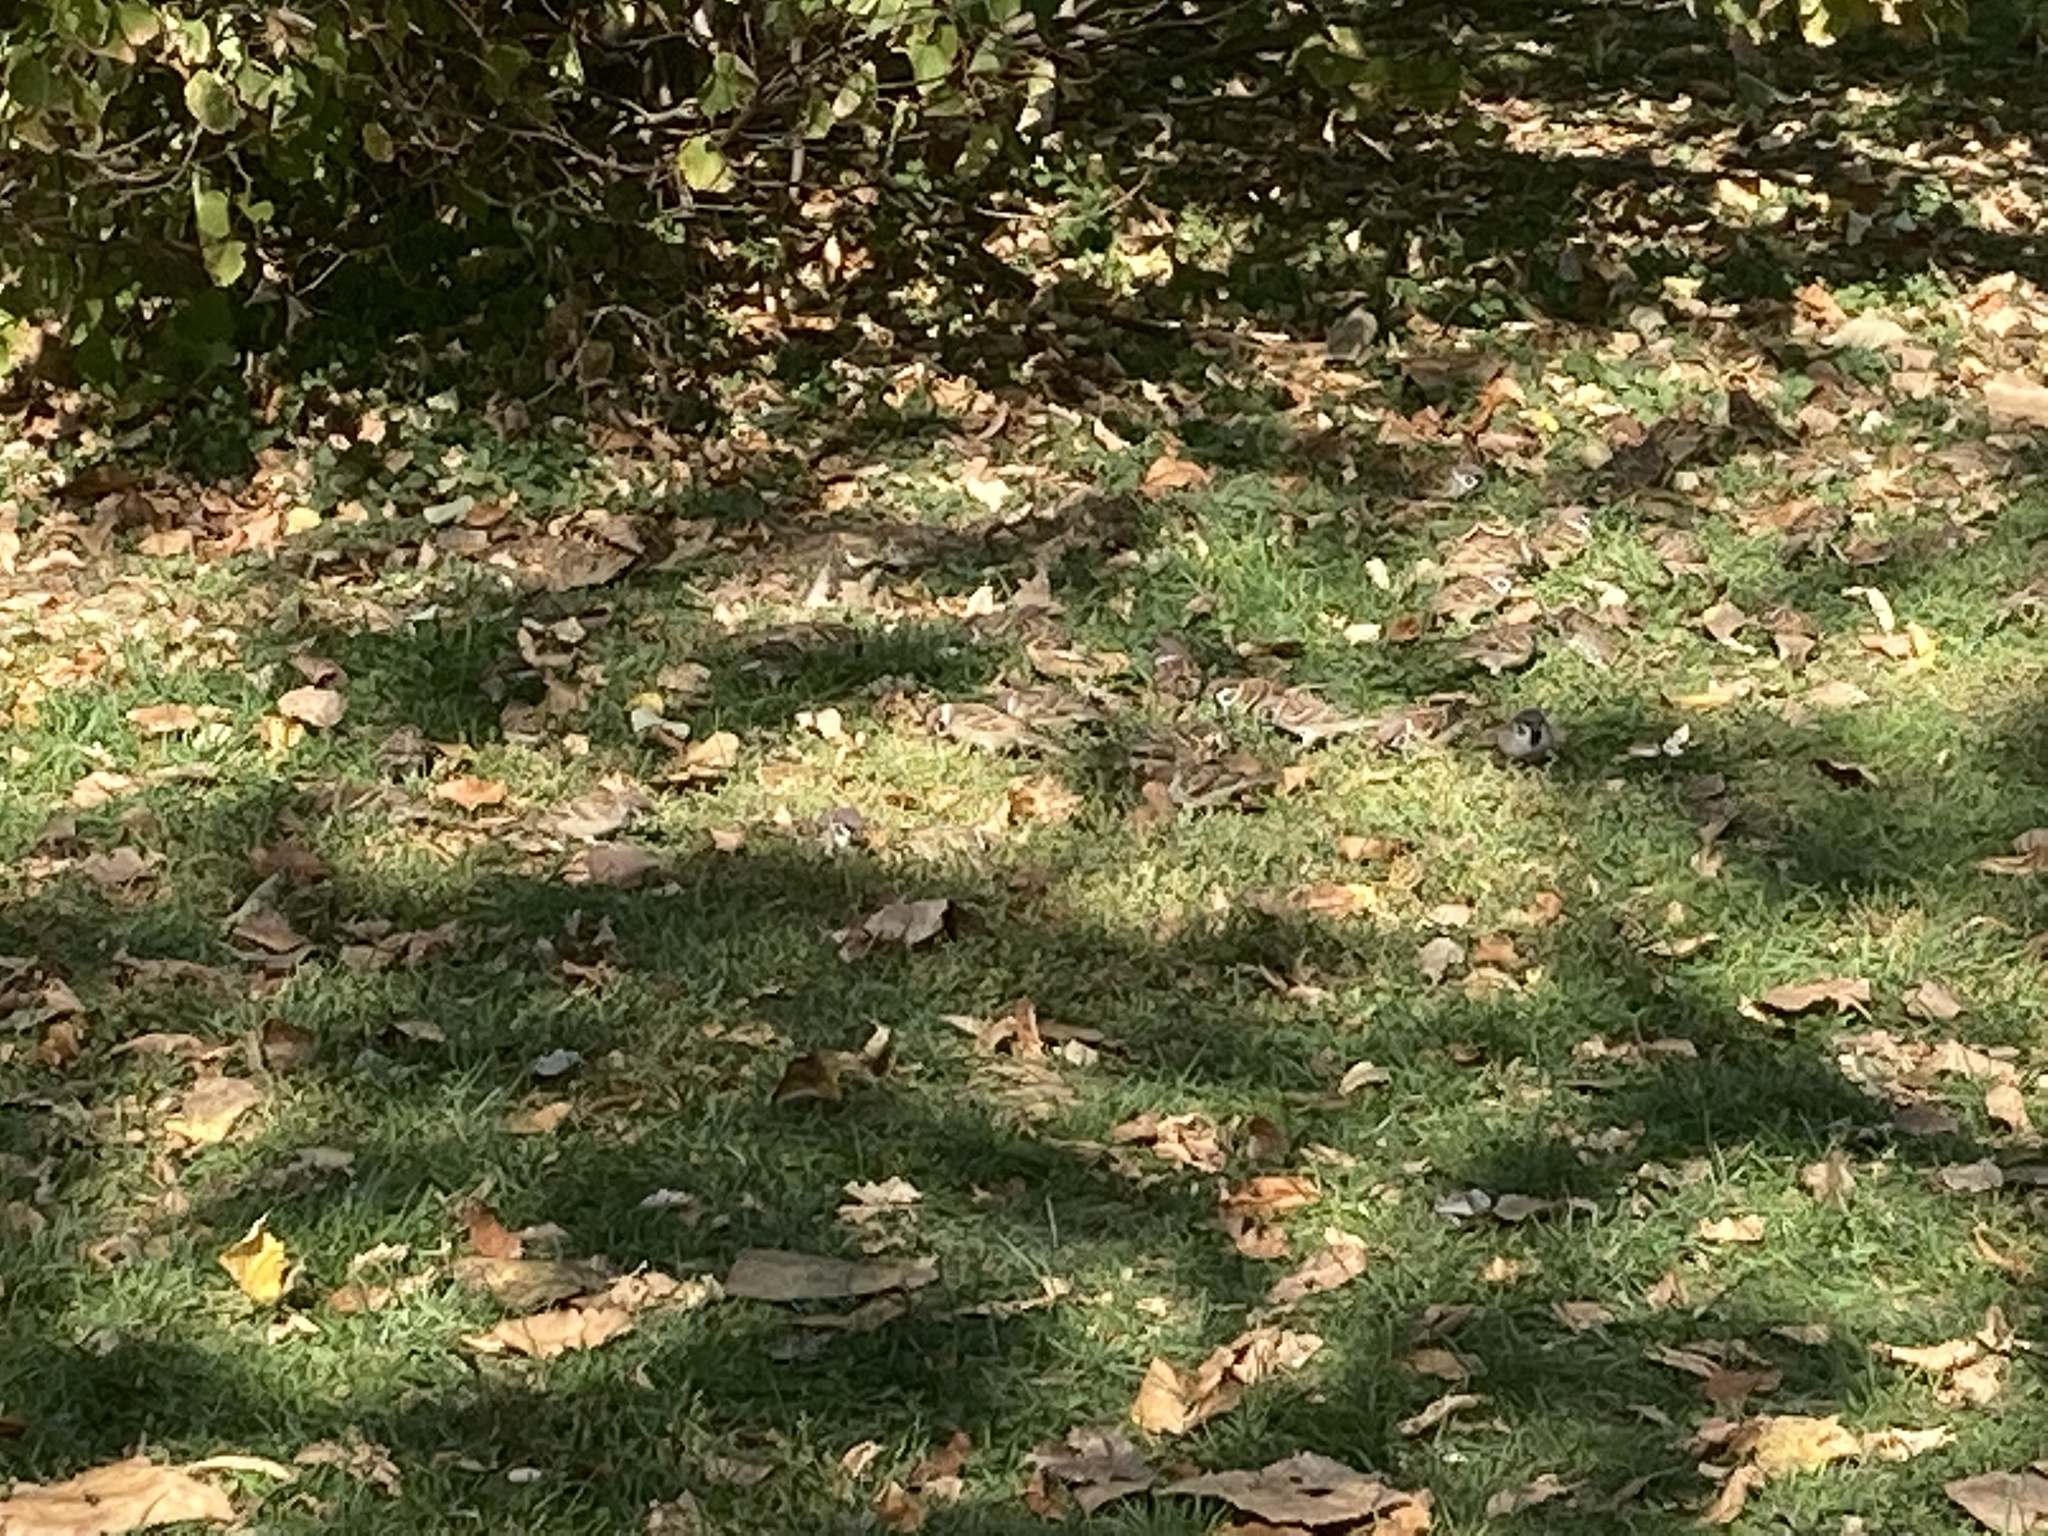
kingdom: Animalia
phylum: Chordata
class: Aves
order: Passeriformes
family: Passeridae
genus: Passer
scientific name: Passer montanus
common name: Eurasian tree sparrow
